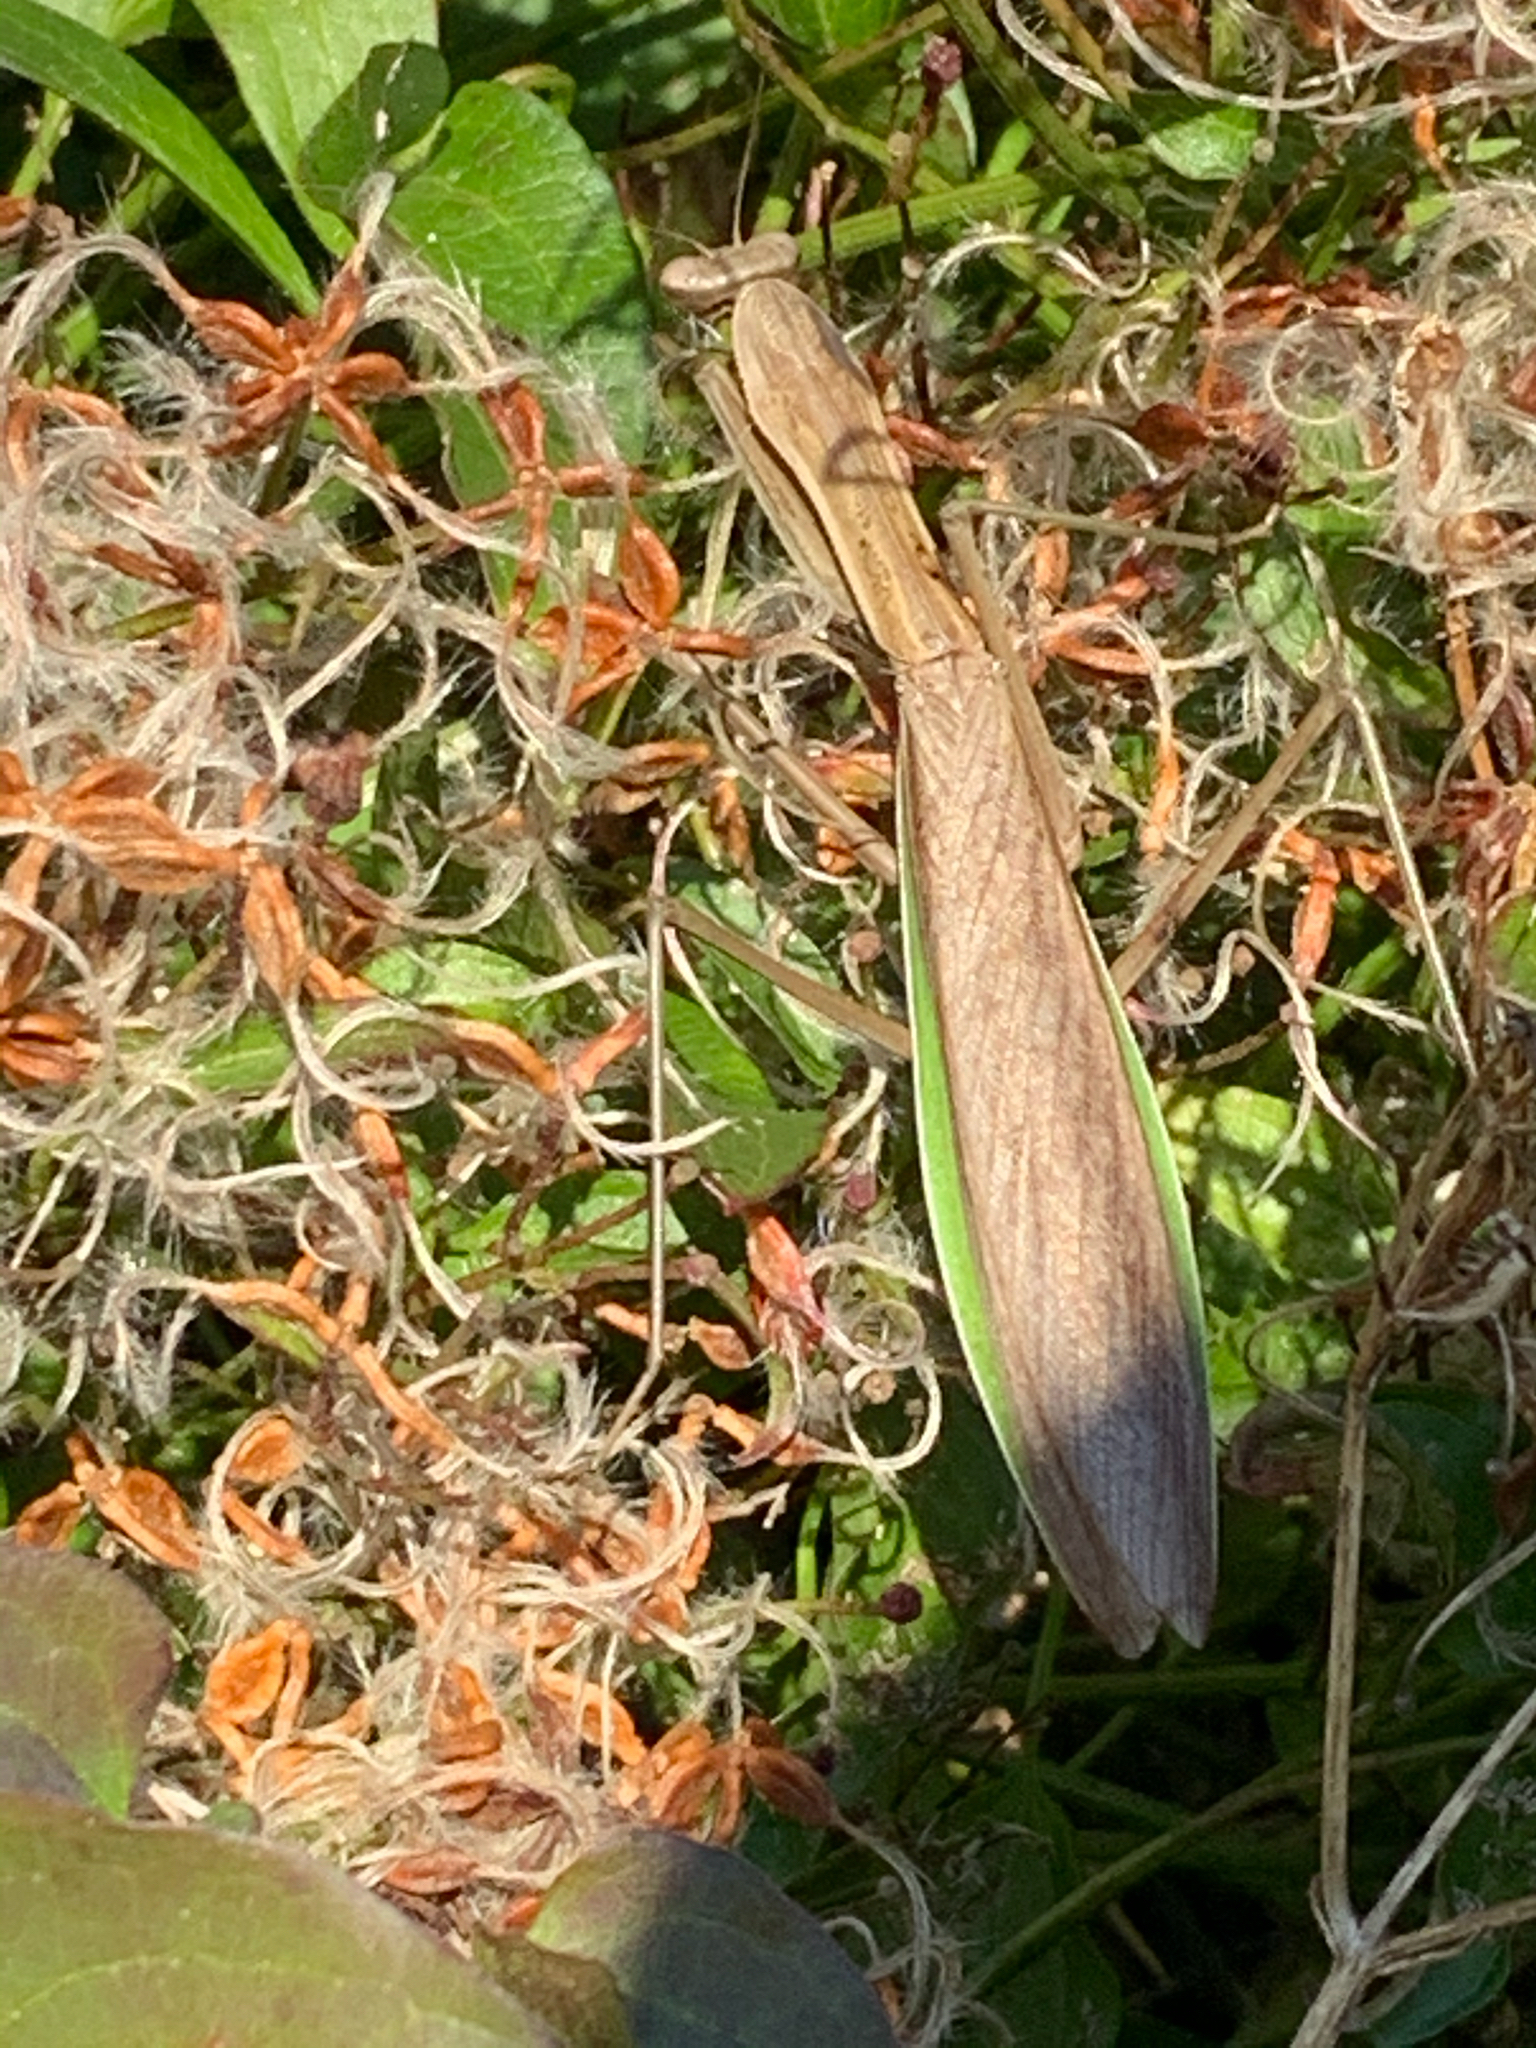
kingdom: Animalia
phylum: Arthropoda
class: Insecta
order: Mantodea
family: Mantidae
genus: Tenodera
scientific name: Tenodera sinensis
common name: Chinese mantis
